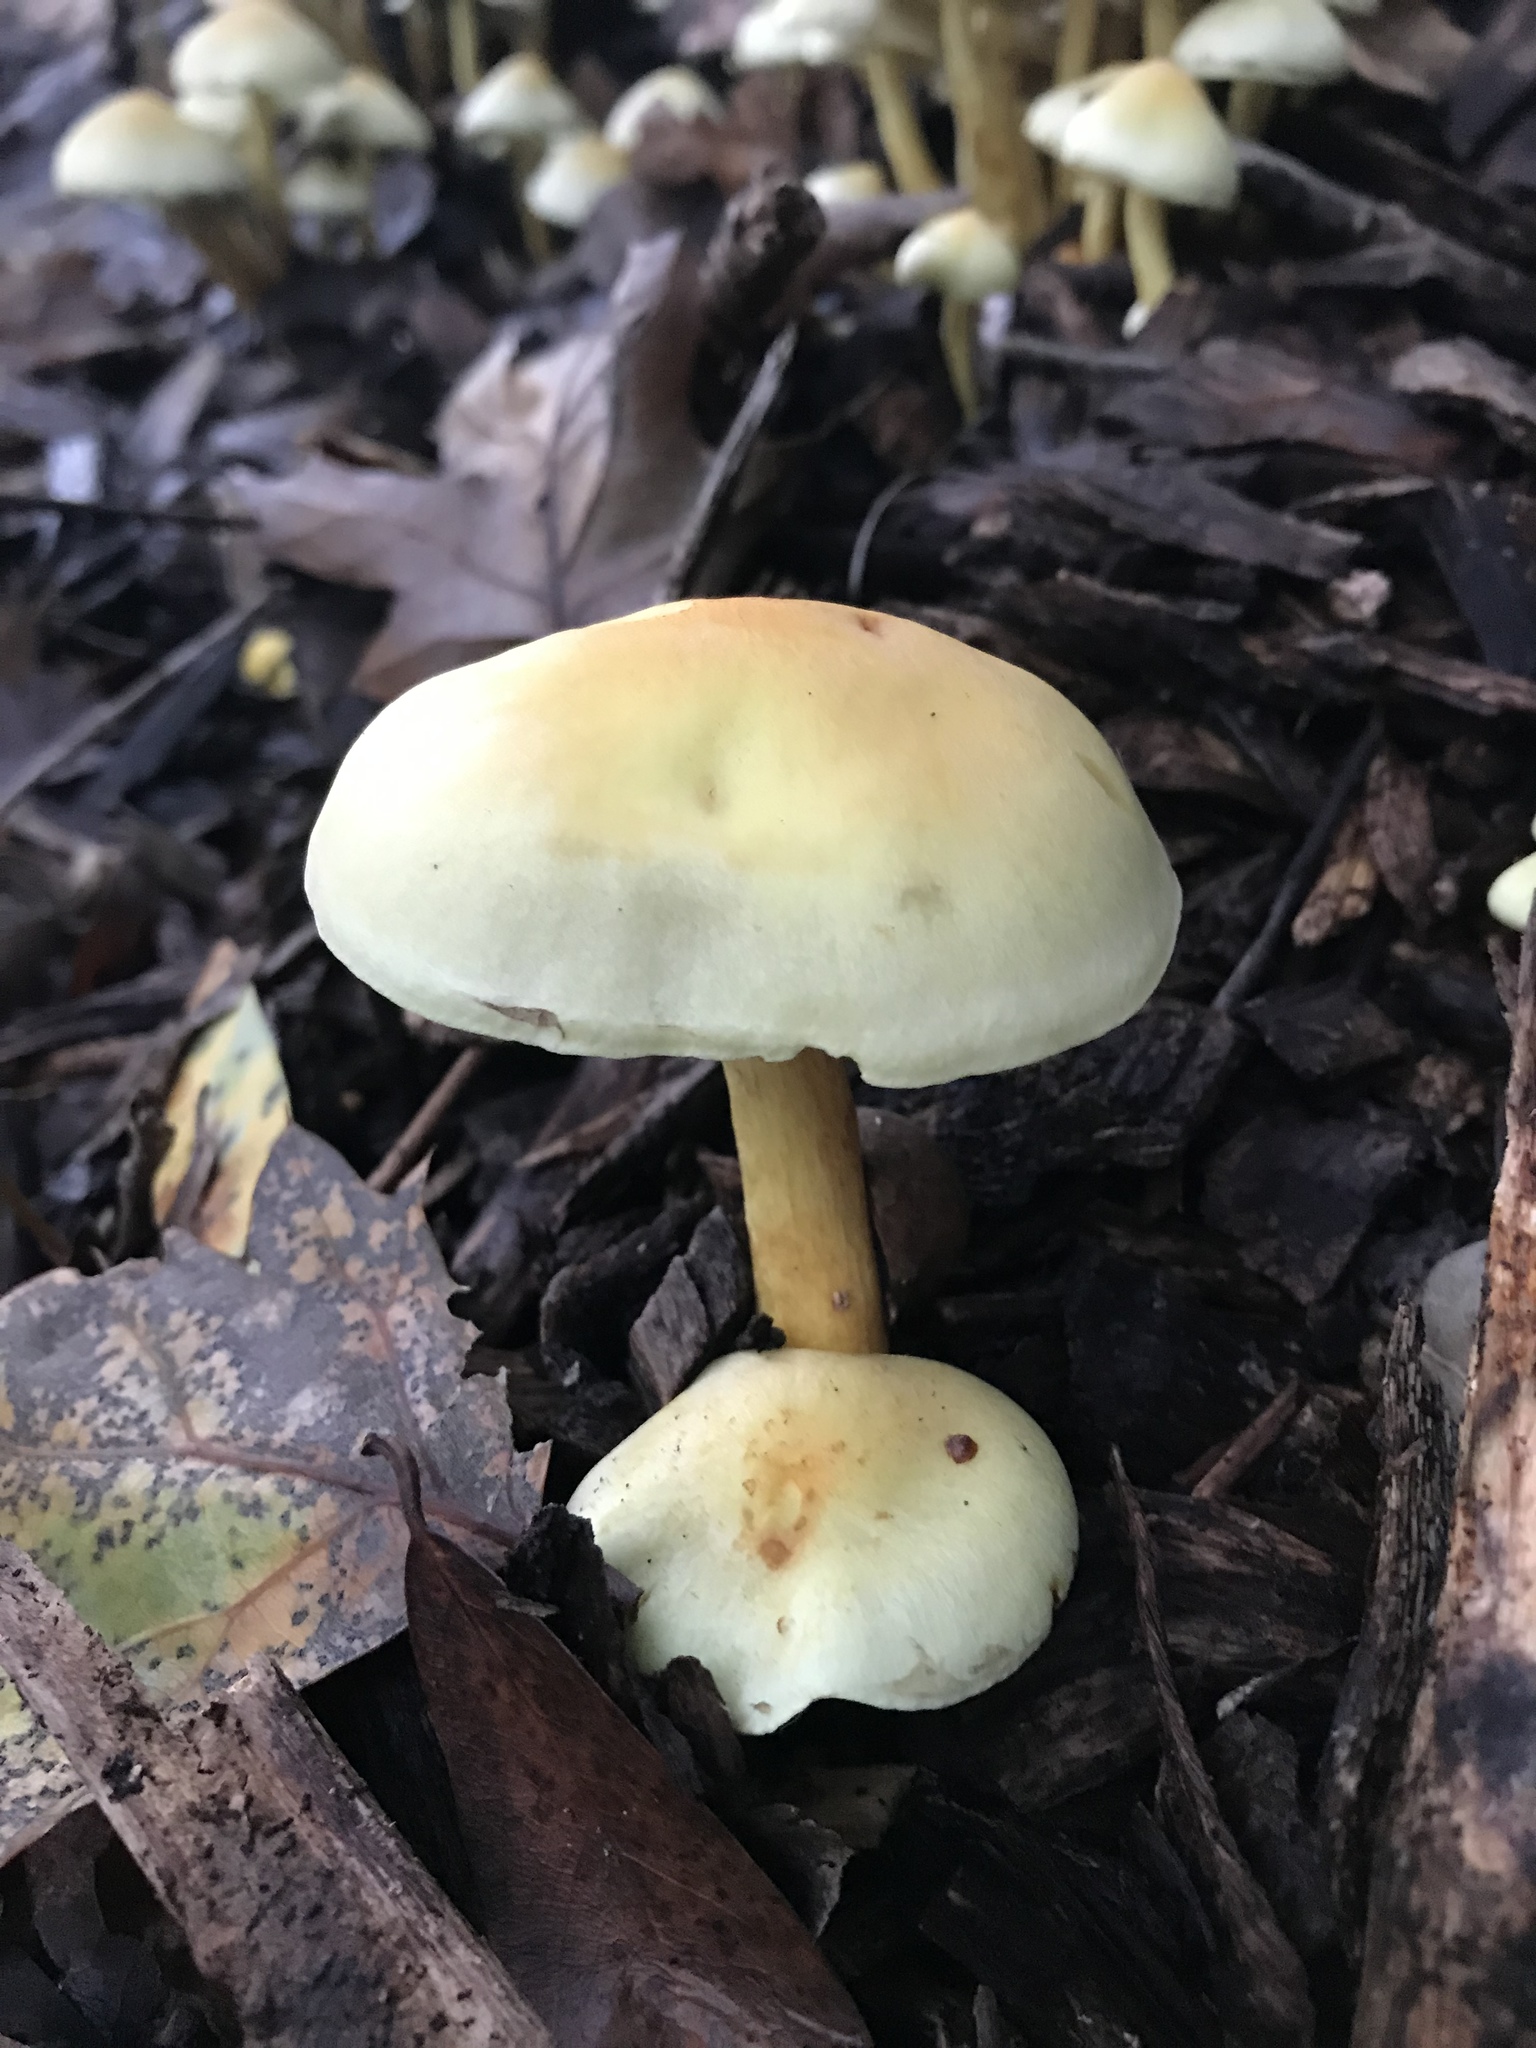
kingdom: Fungi
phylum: Basidiomycota
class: Agaricomycetes
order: Agaricales
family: Strophariaceae
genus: Hypholoma
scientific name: Hypholoma fasciculare
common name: Sulphur tuft
